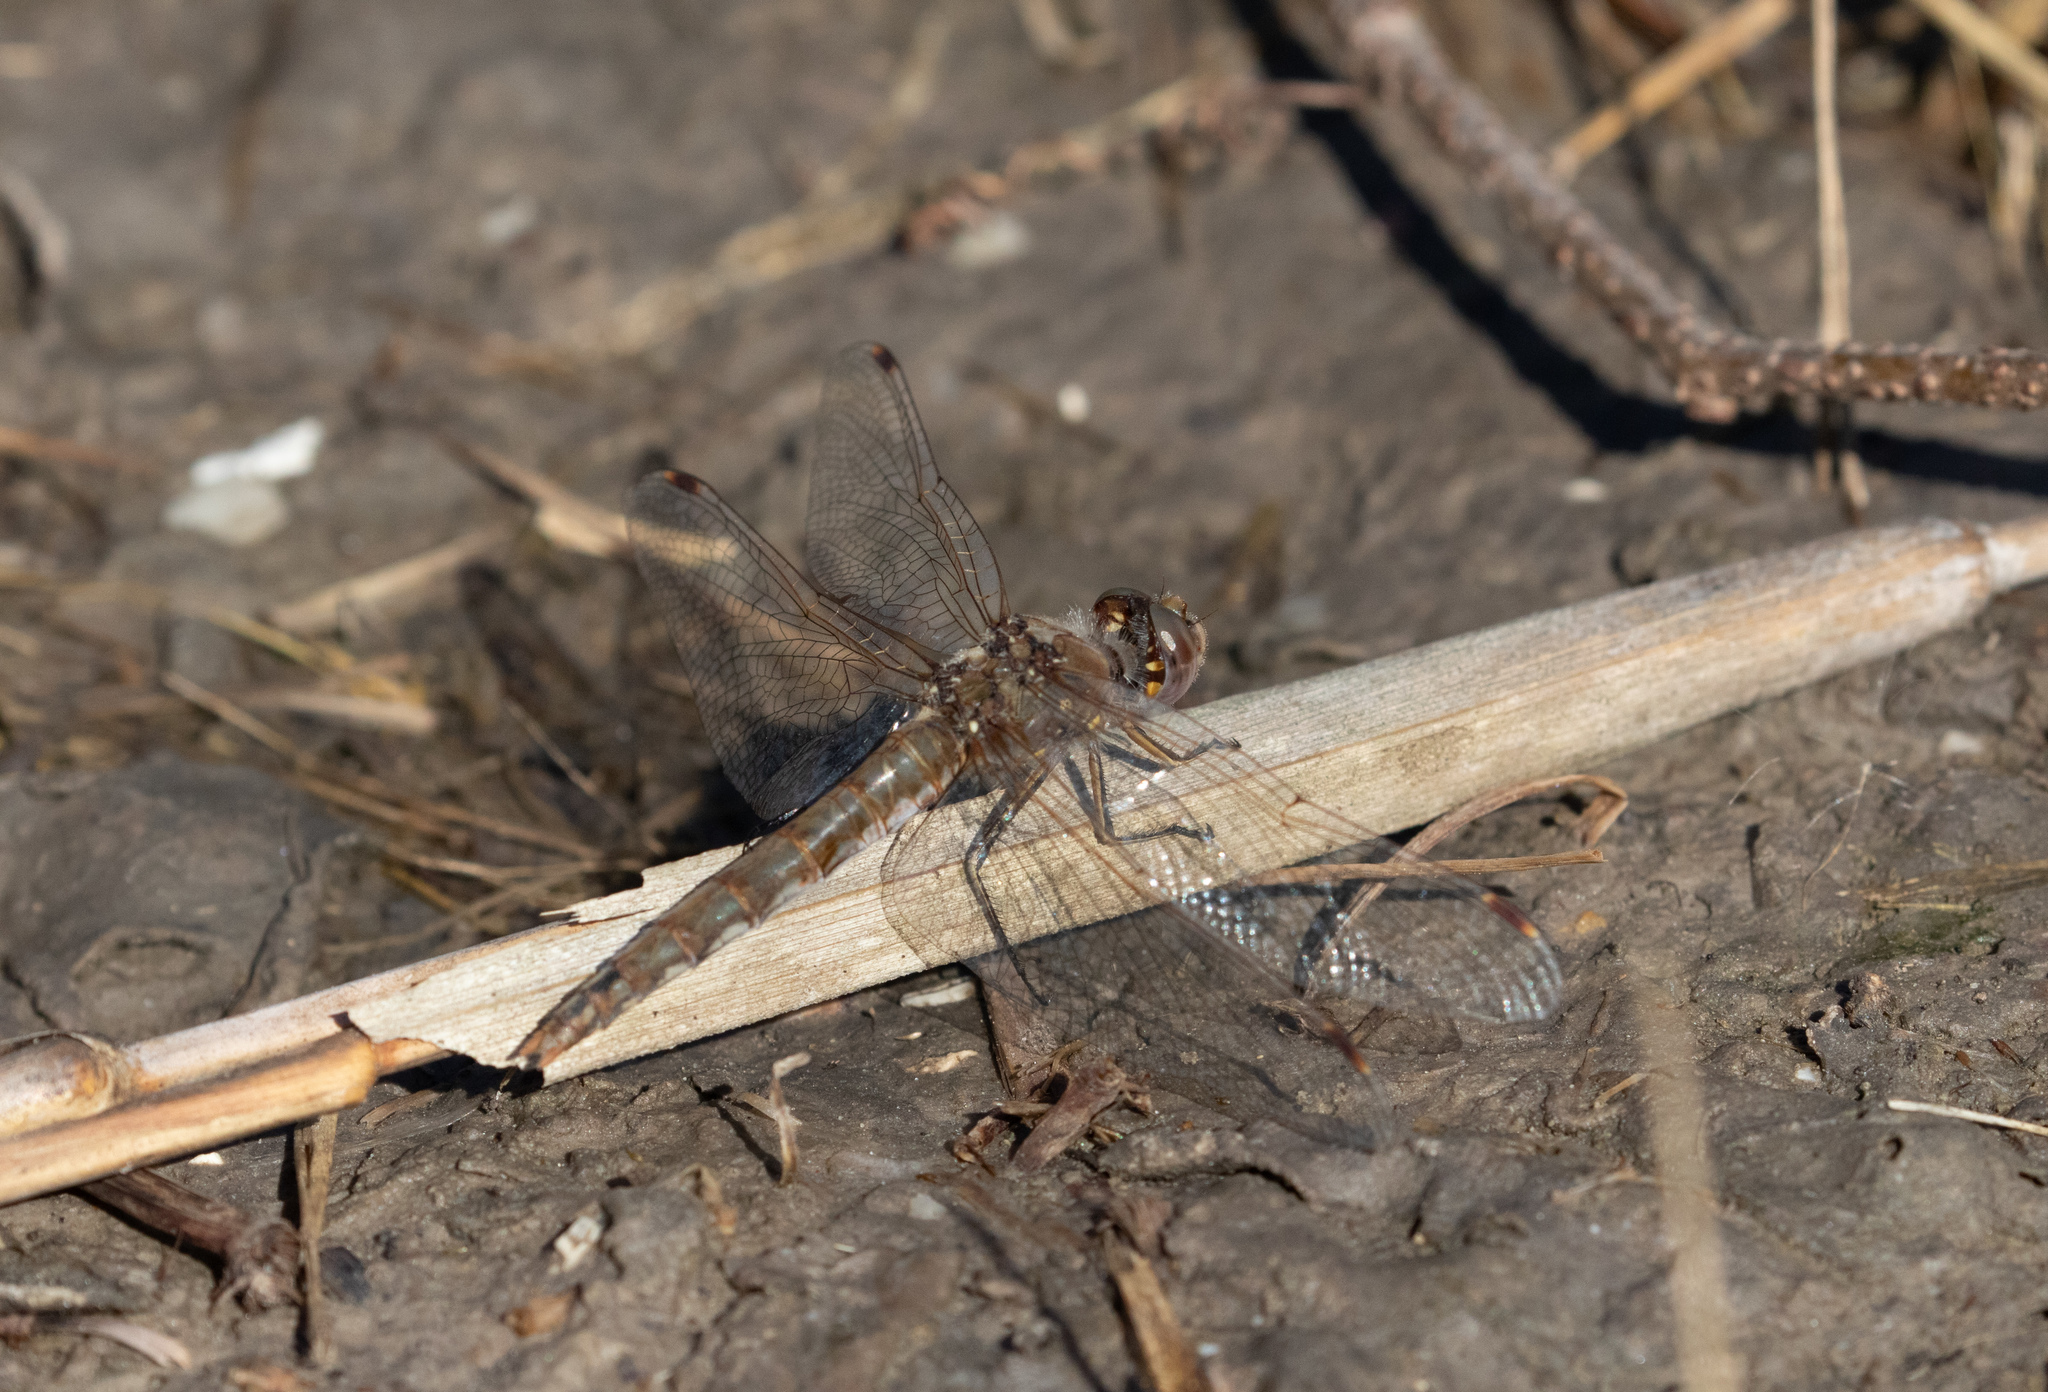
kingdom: Animalia
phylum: Arthropoda
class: Insecta
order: Odonata
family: Libellulidae
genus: Sympetrum
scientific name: Sympetrum corruptum
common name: Variegated meadowhawk
